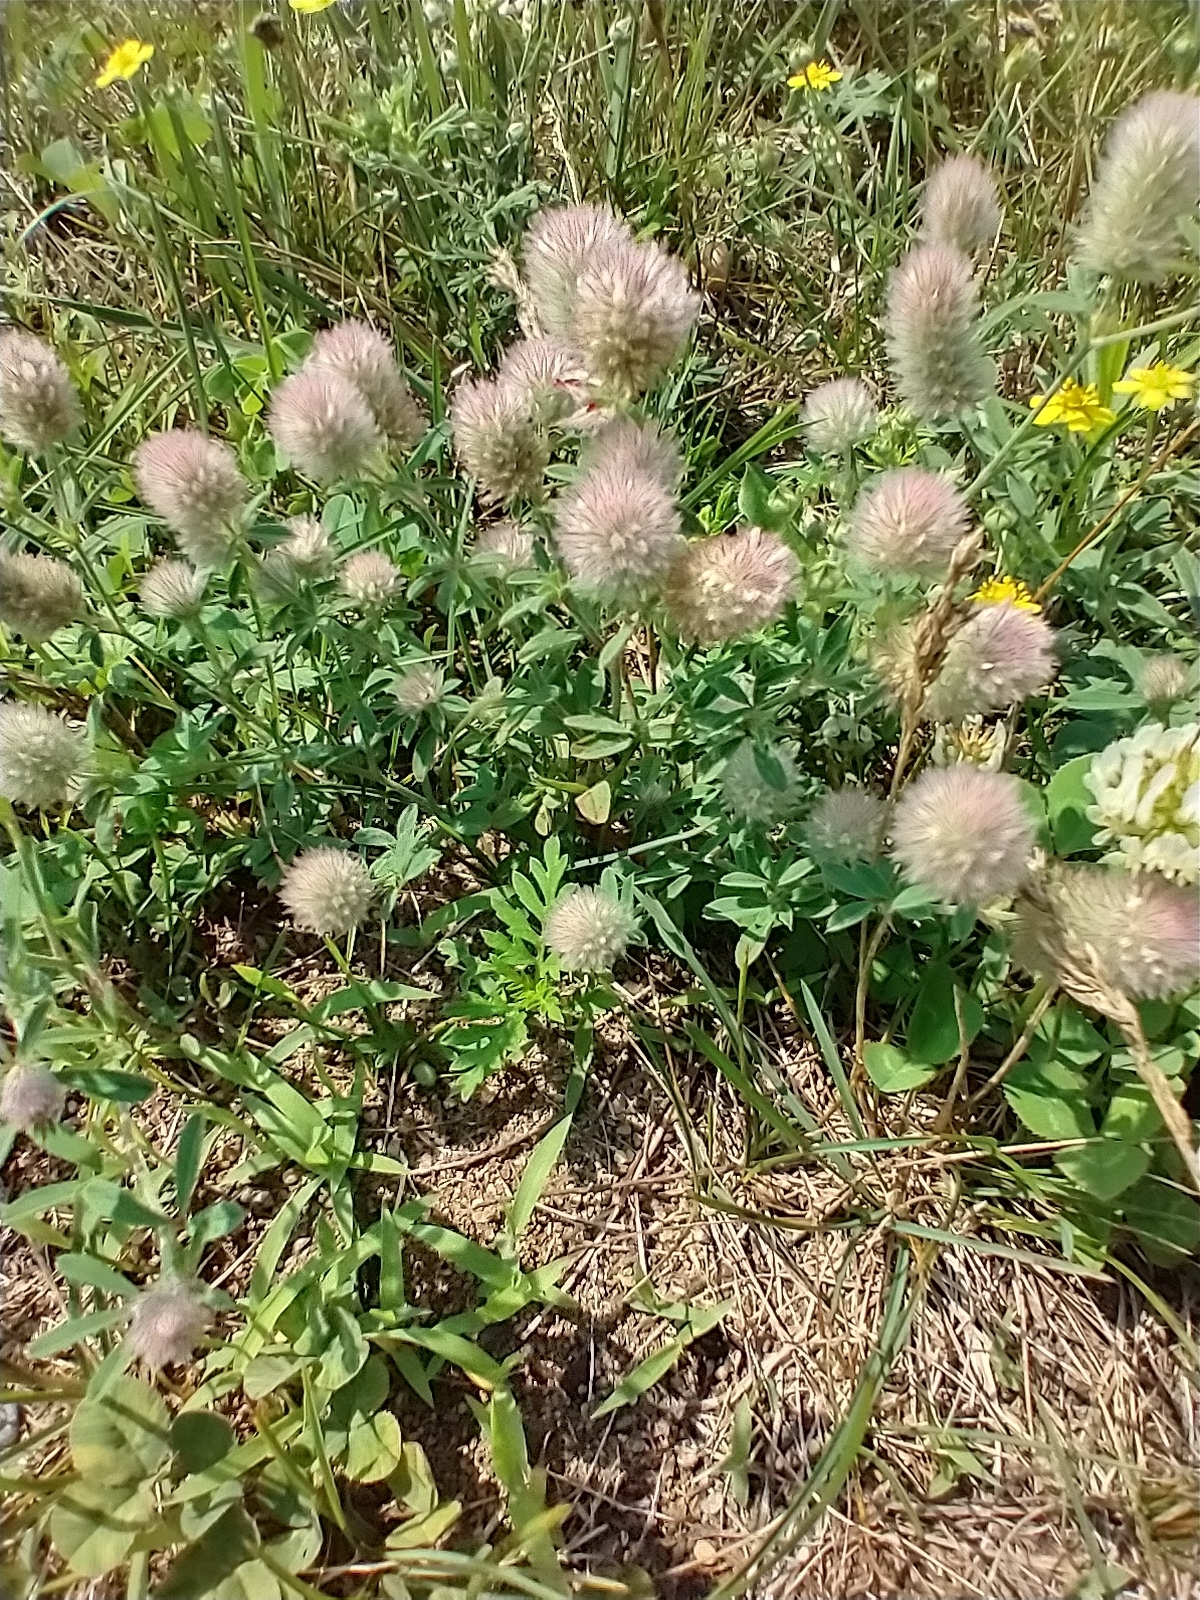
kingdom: Plantae
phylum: Tracheophyta
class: Magnoliopsida
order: Fabales
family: Fabaceae
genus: Trifolium
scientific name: Trifolium arvense
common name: Hare's-foot clover
